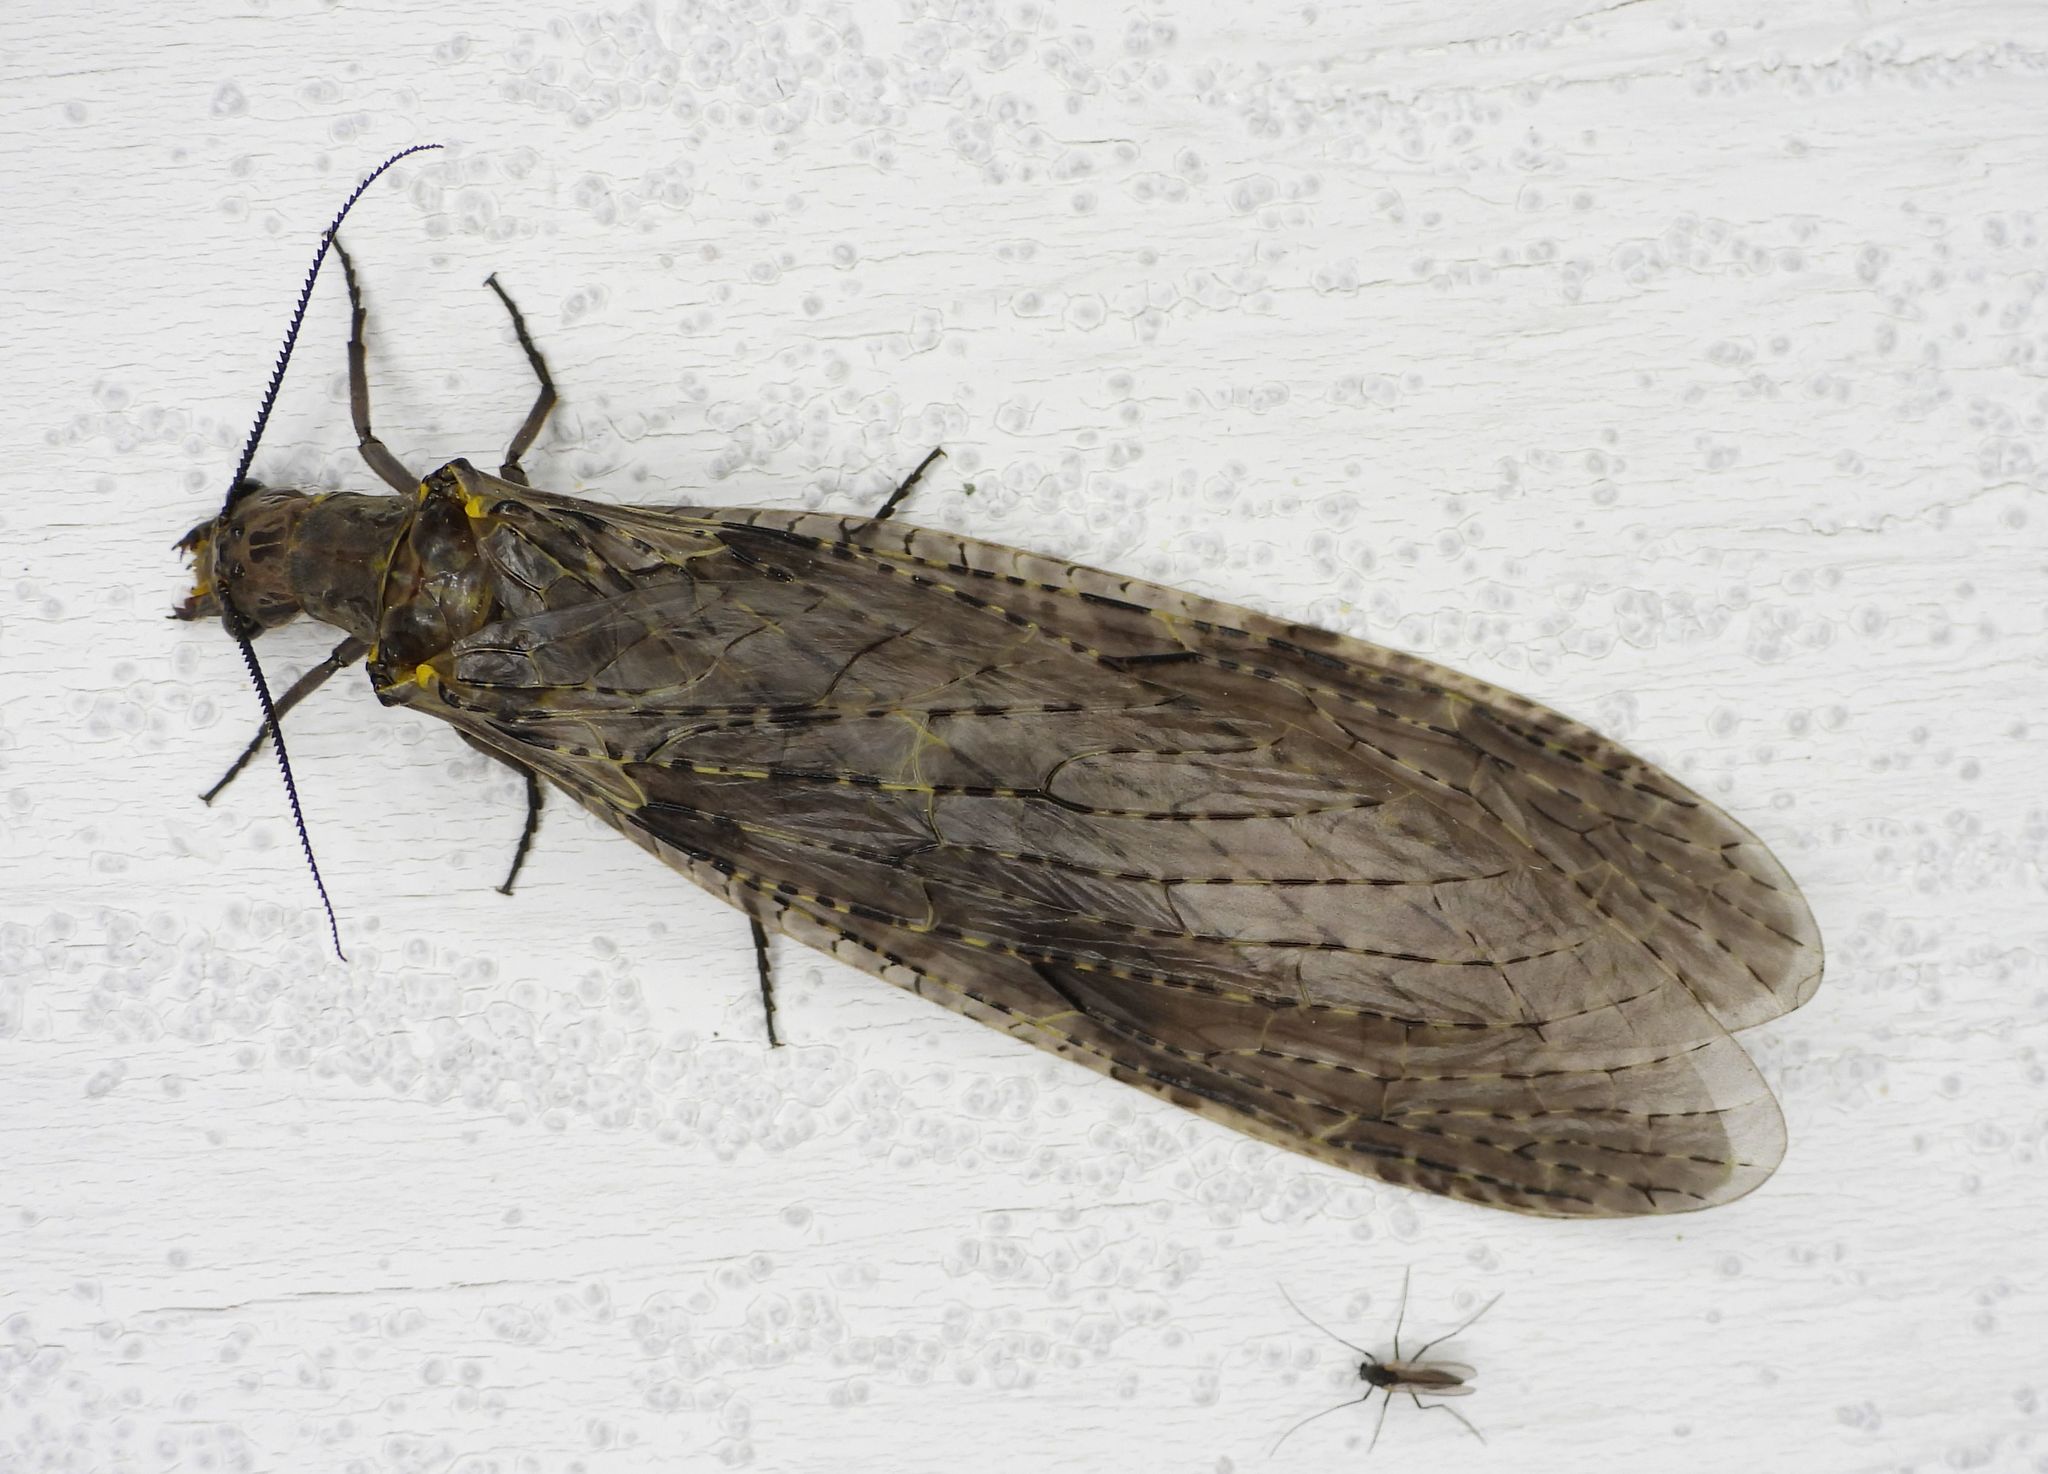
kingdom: Animalia
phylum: Arthropoda
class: Insecta
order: Megaloptera
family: Corydalidae
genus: Chauliodes
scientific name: Chauliodes rastricornis
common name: Spring fishfly
